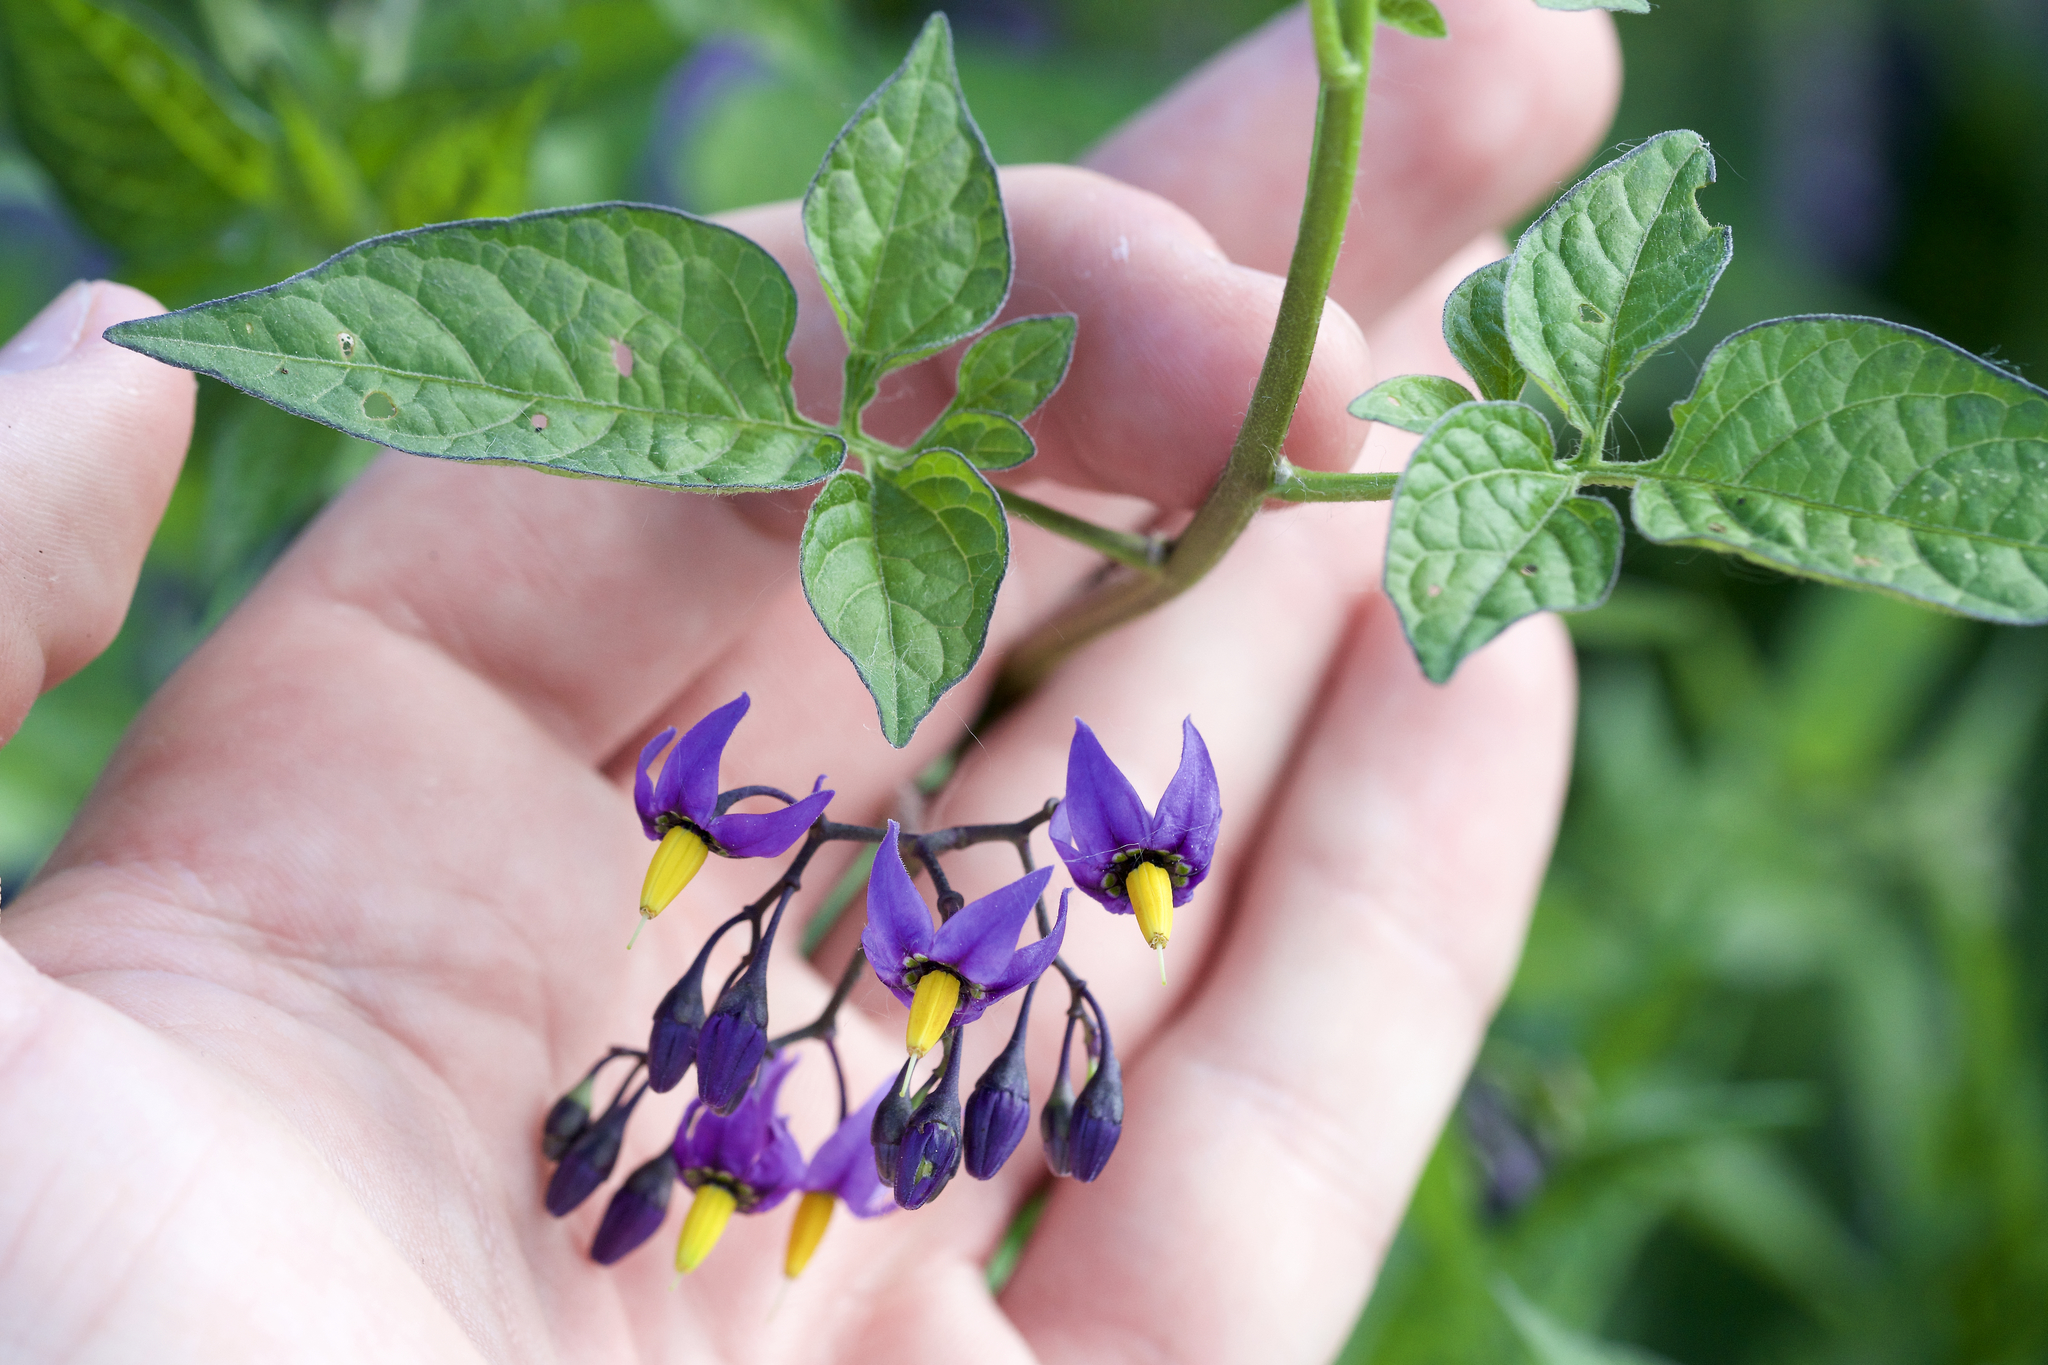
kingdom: Plantae
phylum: Tracheophyta
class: Magnoliopsida
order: Solanales
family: Solanaceae
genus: Solanum
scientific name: Solanum dulcamara
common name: Climbing nightshade
